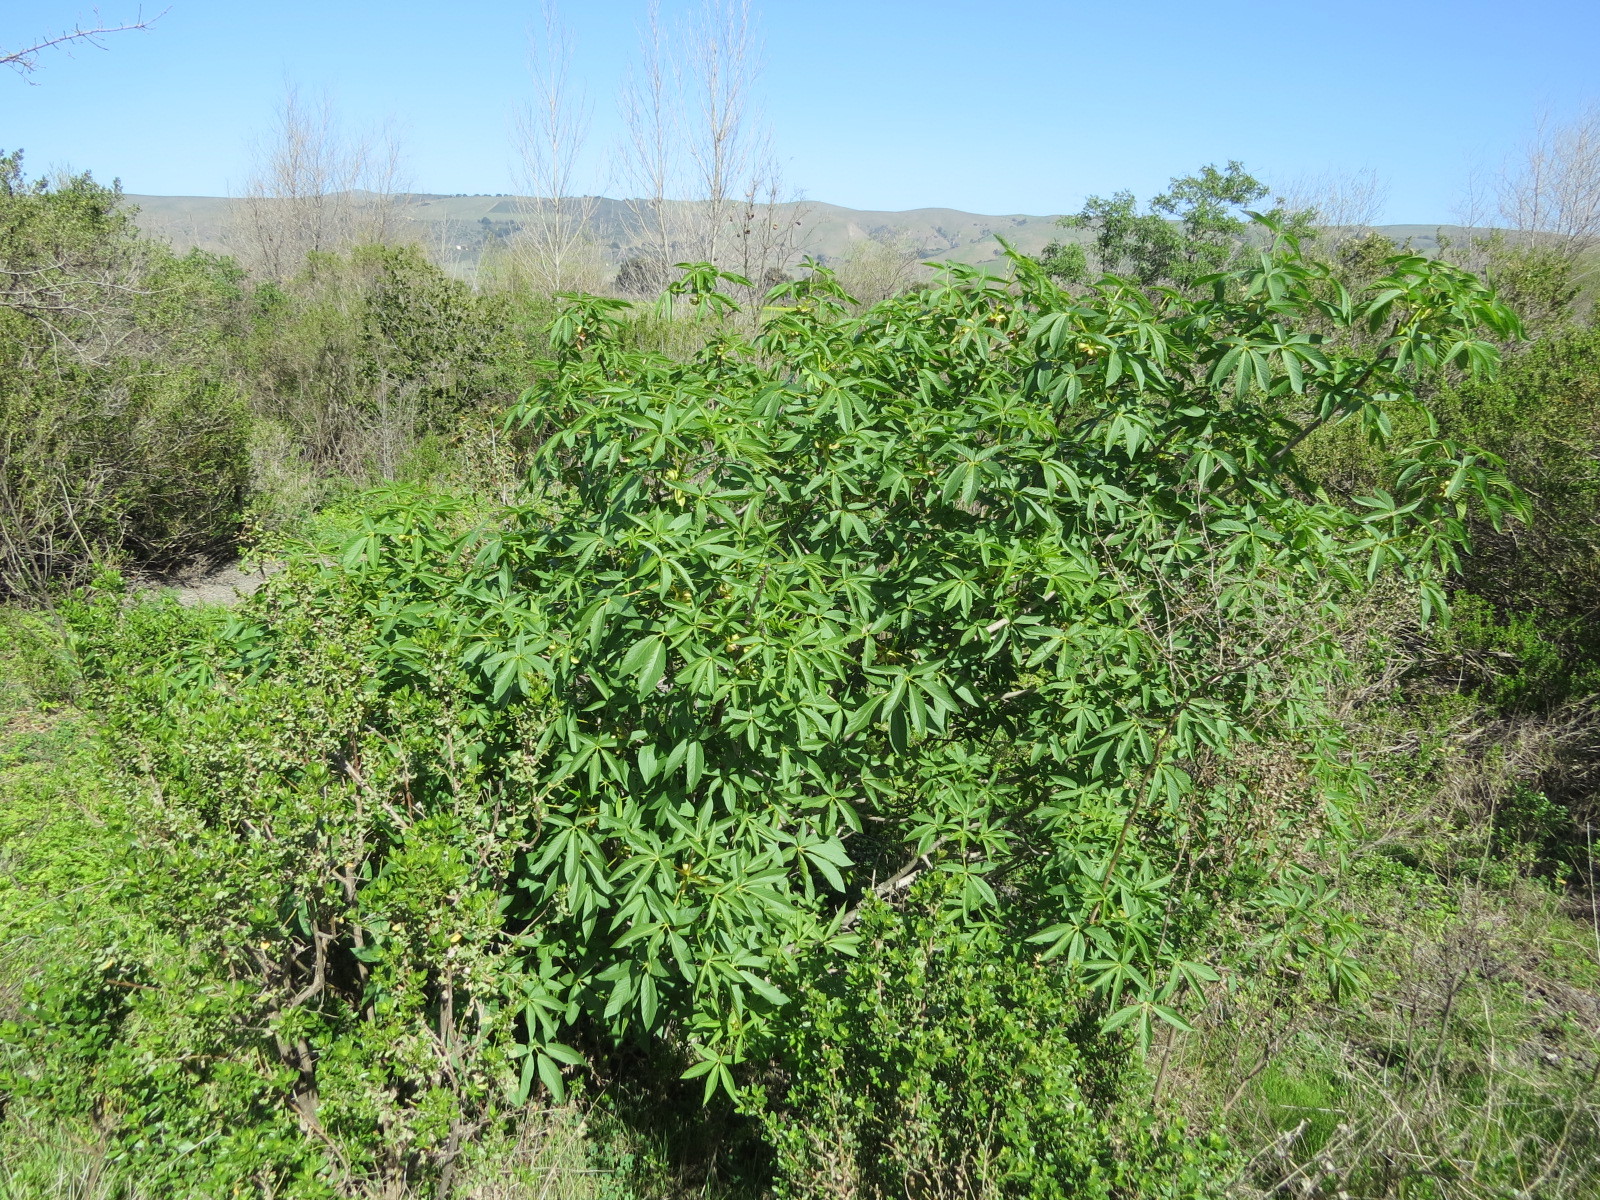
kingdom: Plantae
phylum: Tracheophyta
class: Magnoliopsida
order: Sapindales
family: Sapindaceae
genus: Aesculus
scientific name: Aesculus californica
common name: California buckeye
